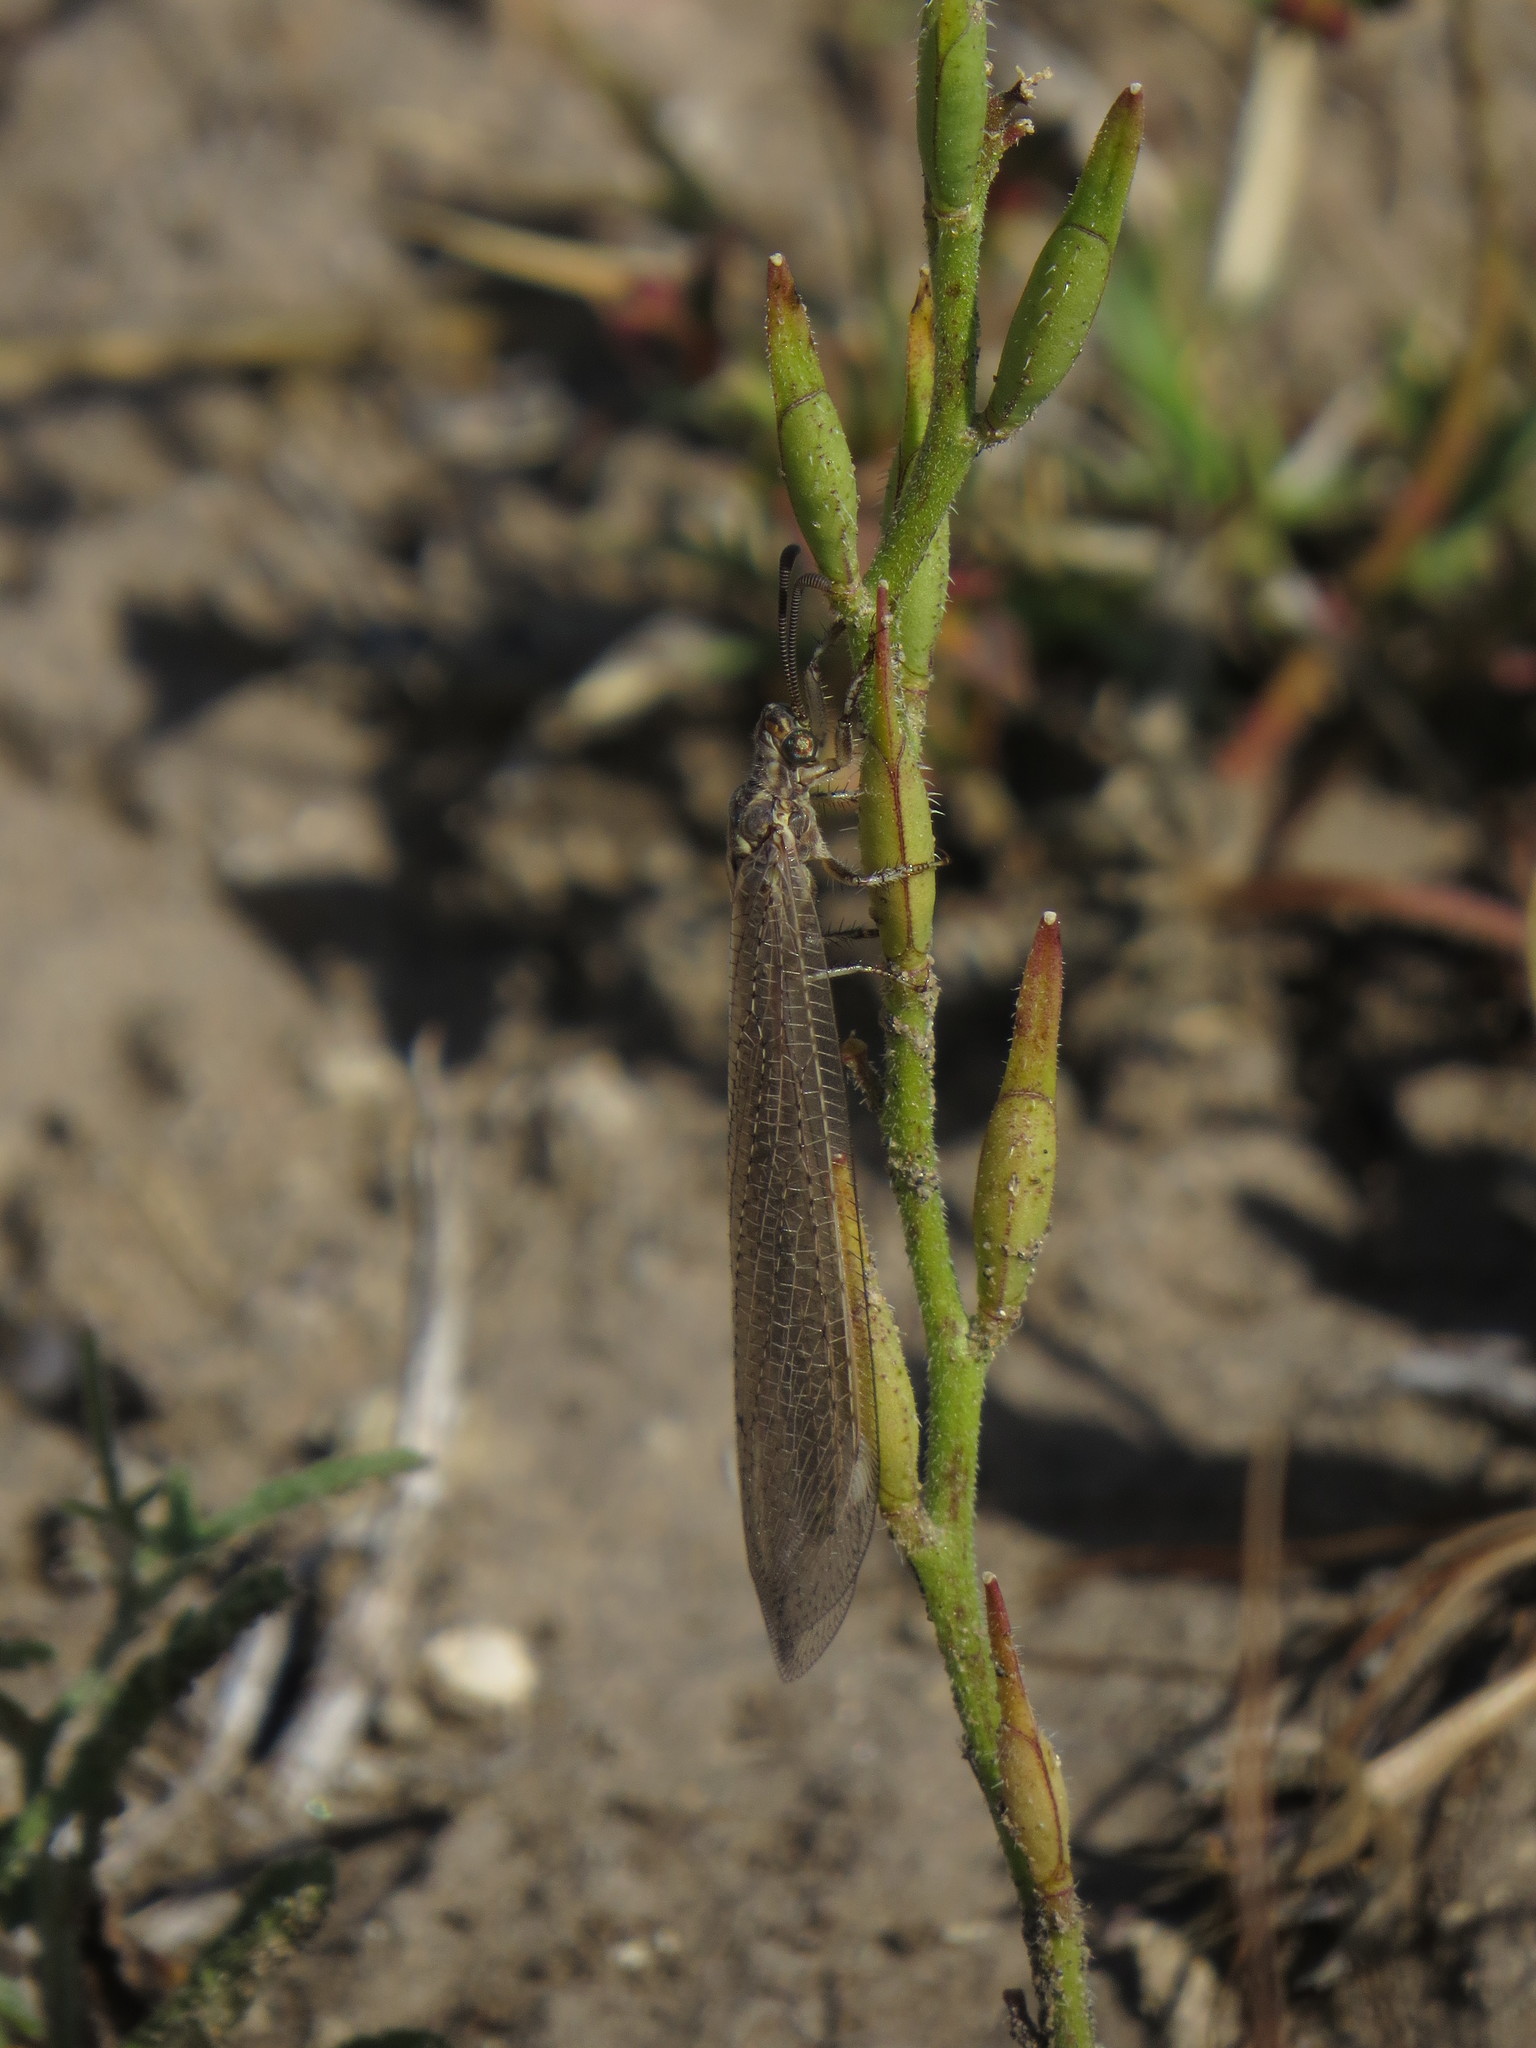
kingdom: Animalia
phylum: Arthropoda
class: Insecta
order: Neuroptera
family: Myrmeleontidae
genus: Creoleon
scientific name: Creoleon lugdunensis
